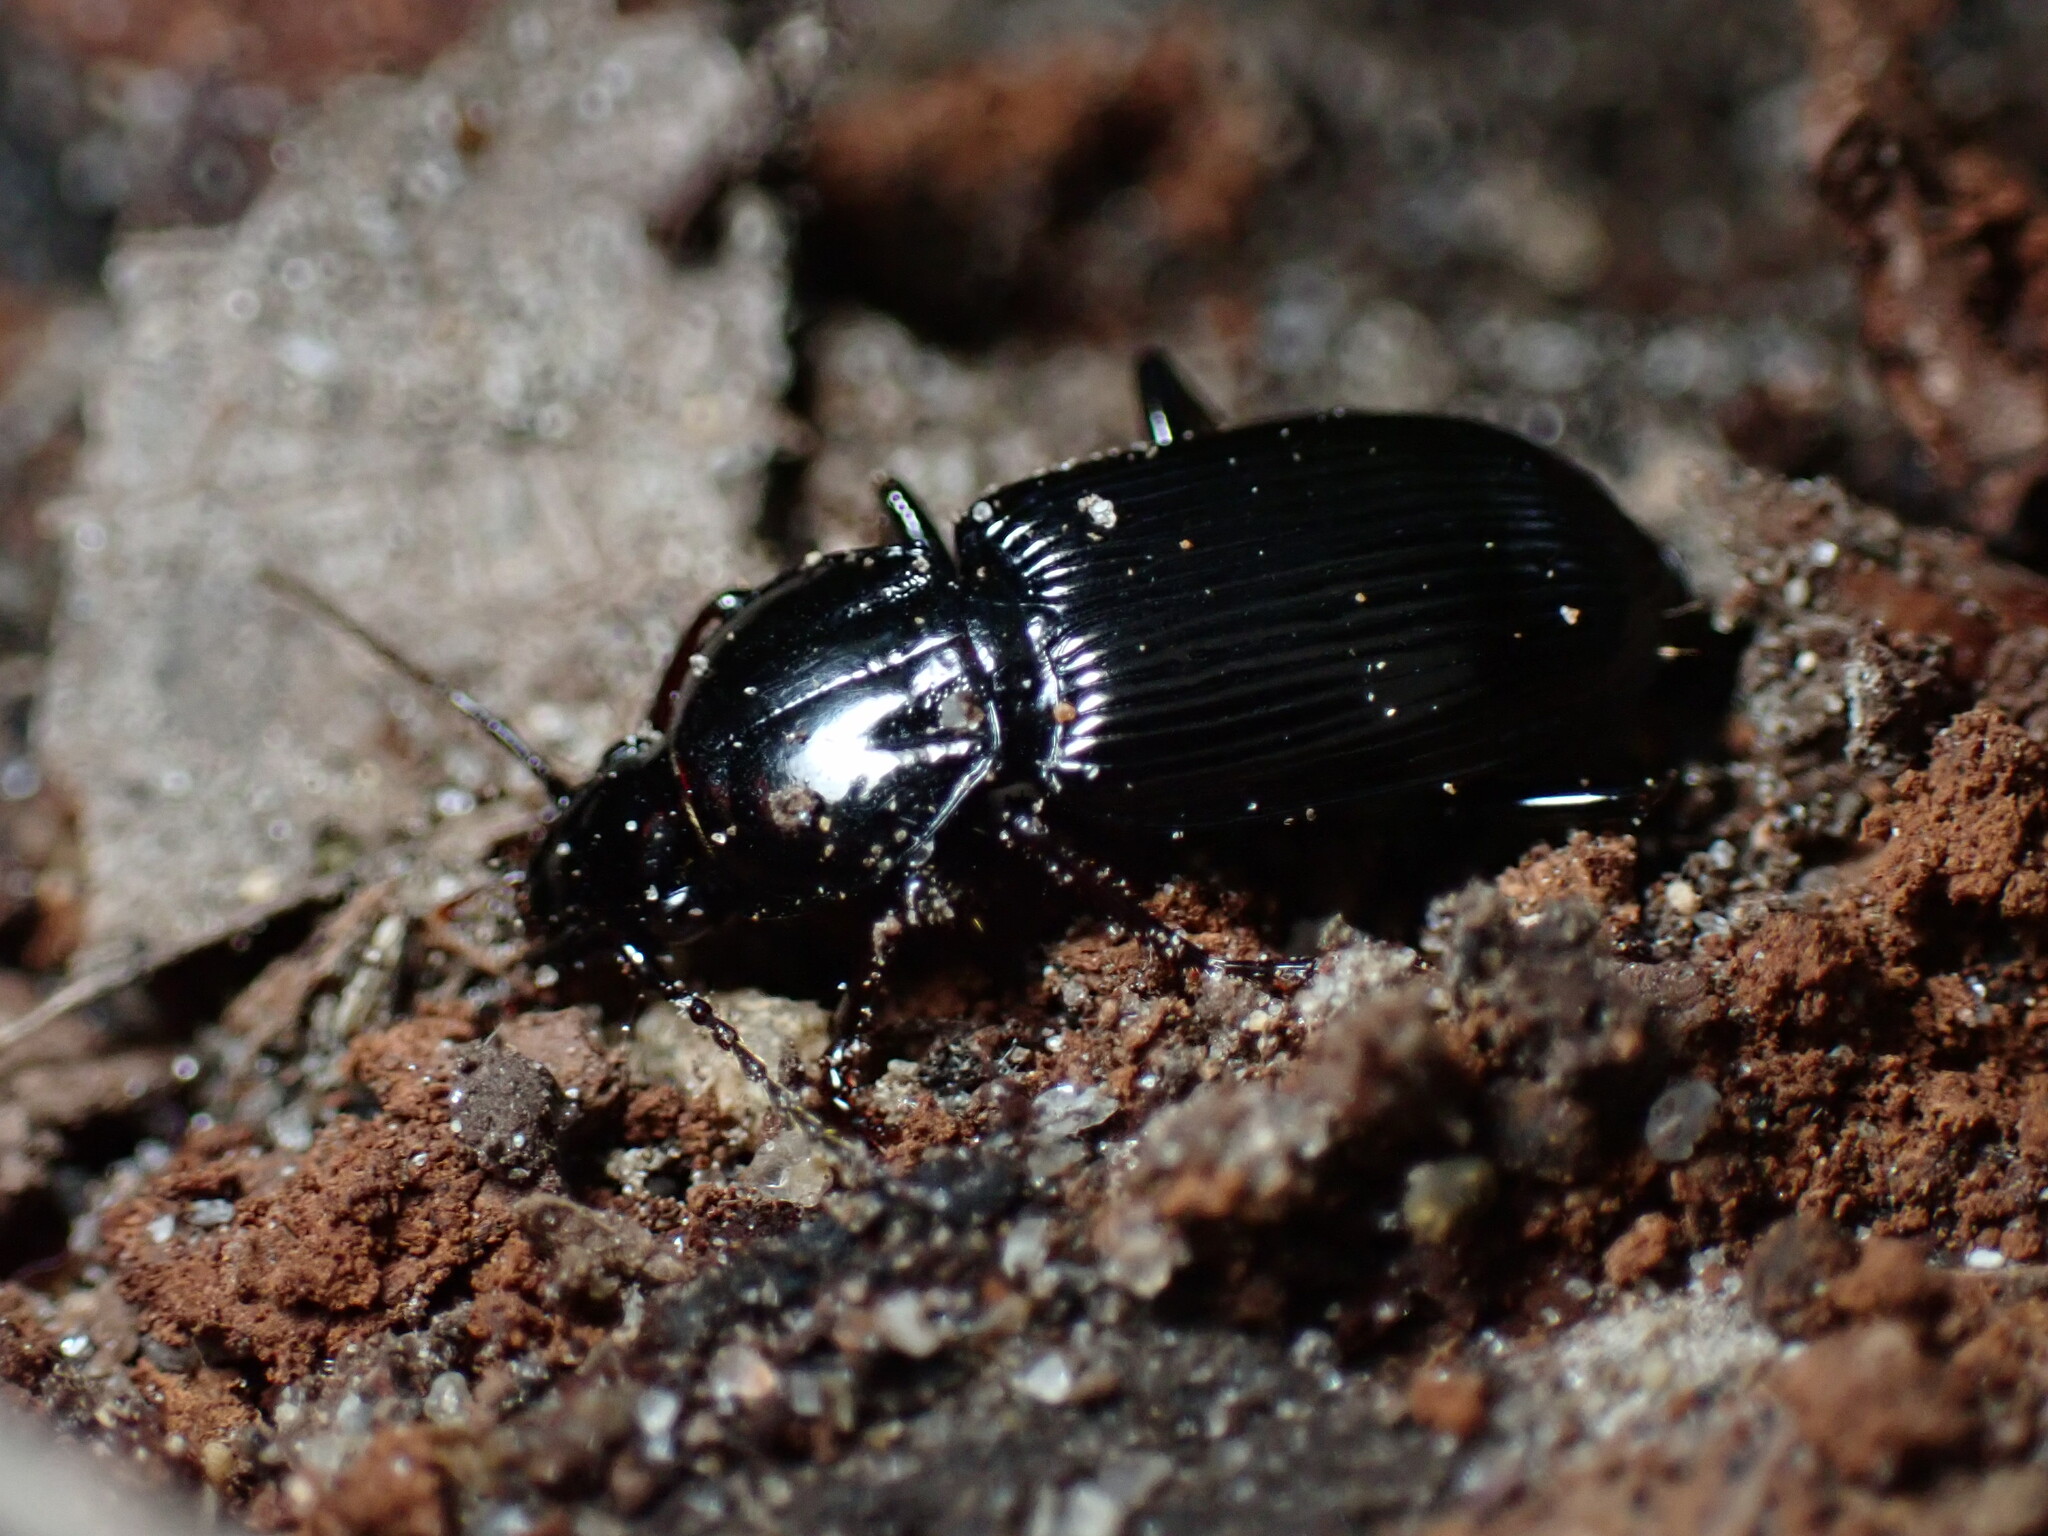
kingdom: Animalia
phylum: Arthropoda
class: Insecta
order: Coleoptera
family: Carabidae
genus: Pterostichus
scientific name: Pterostichus mutus
